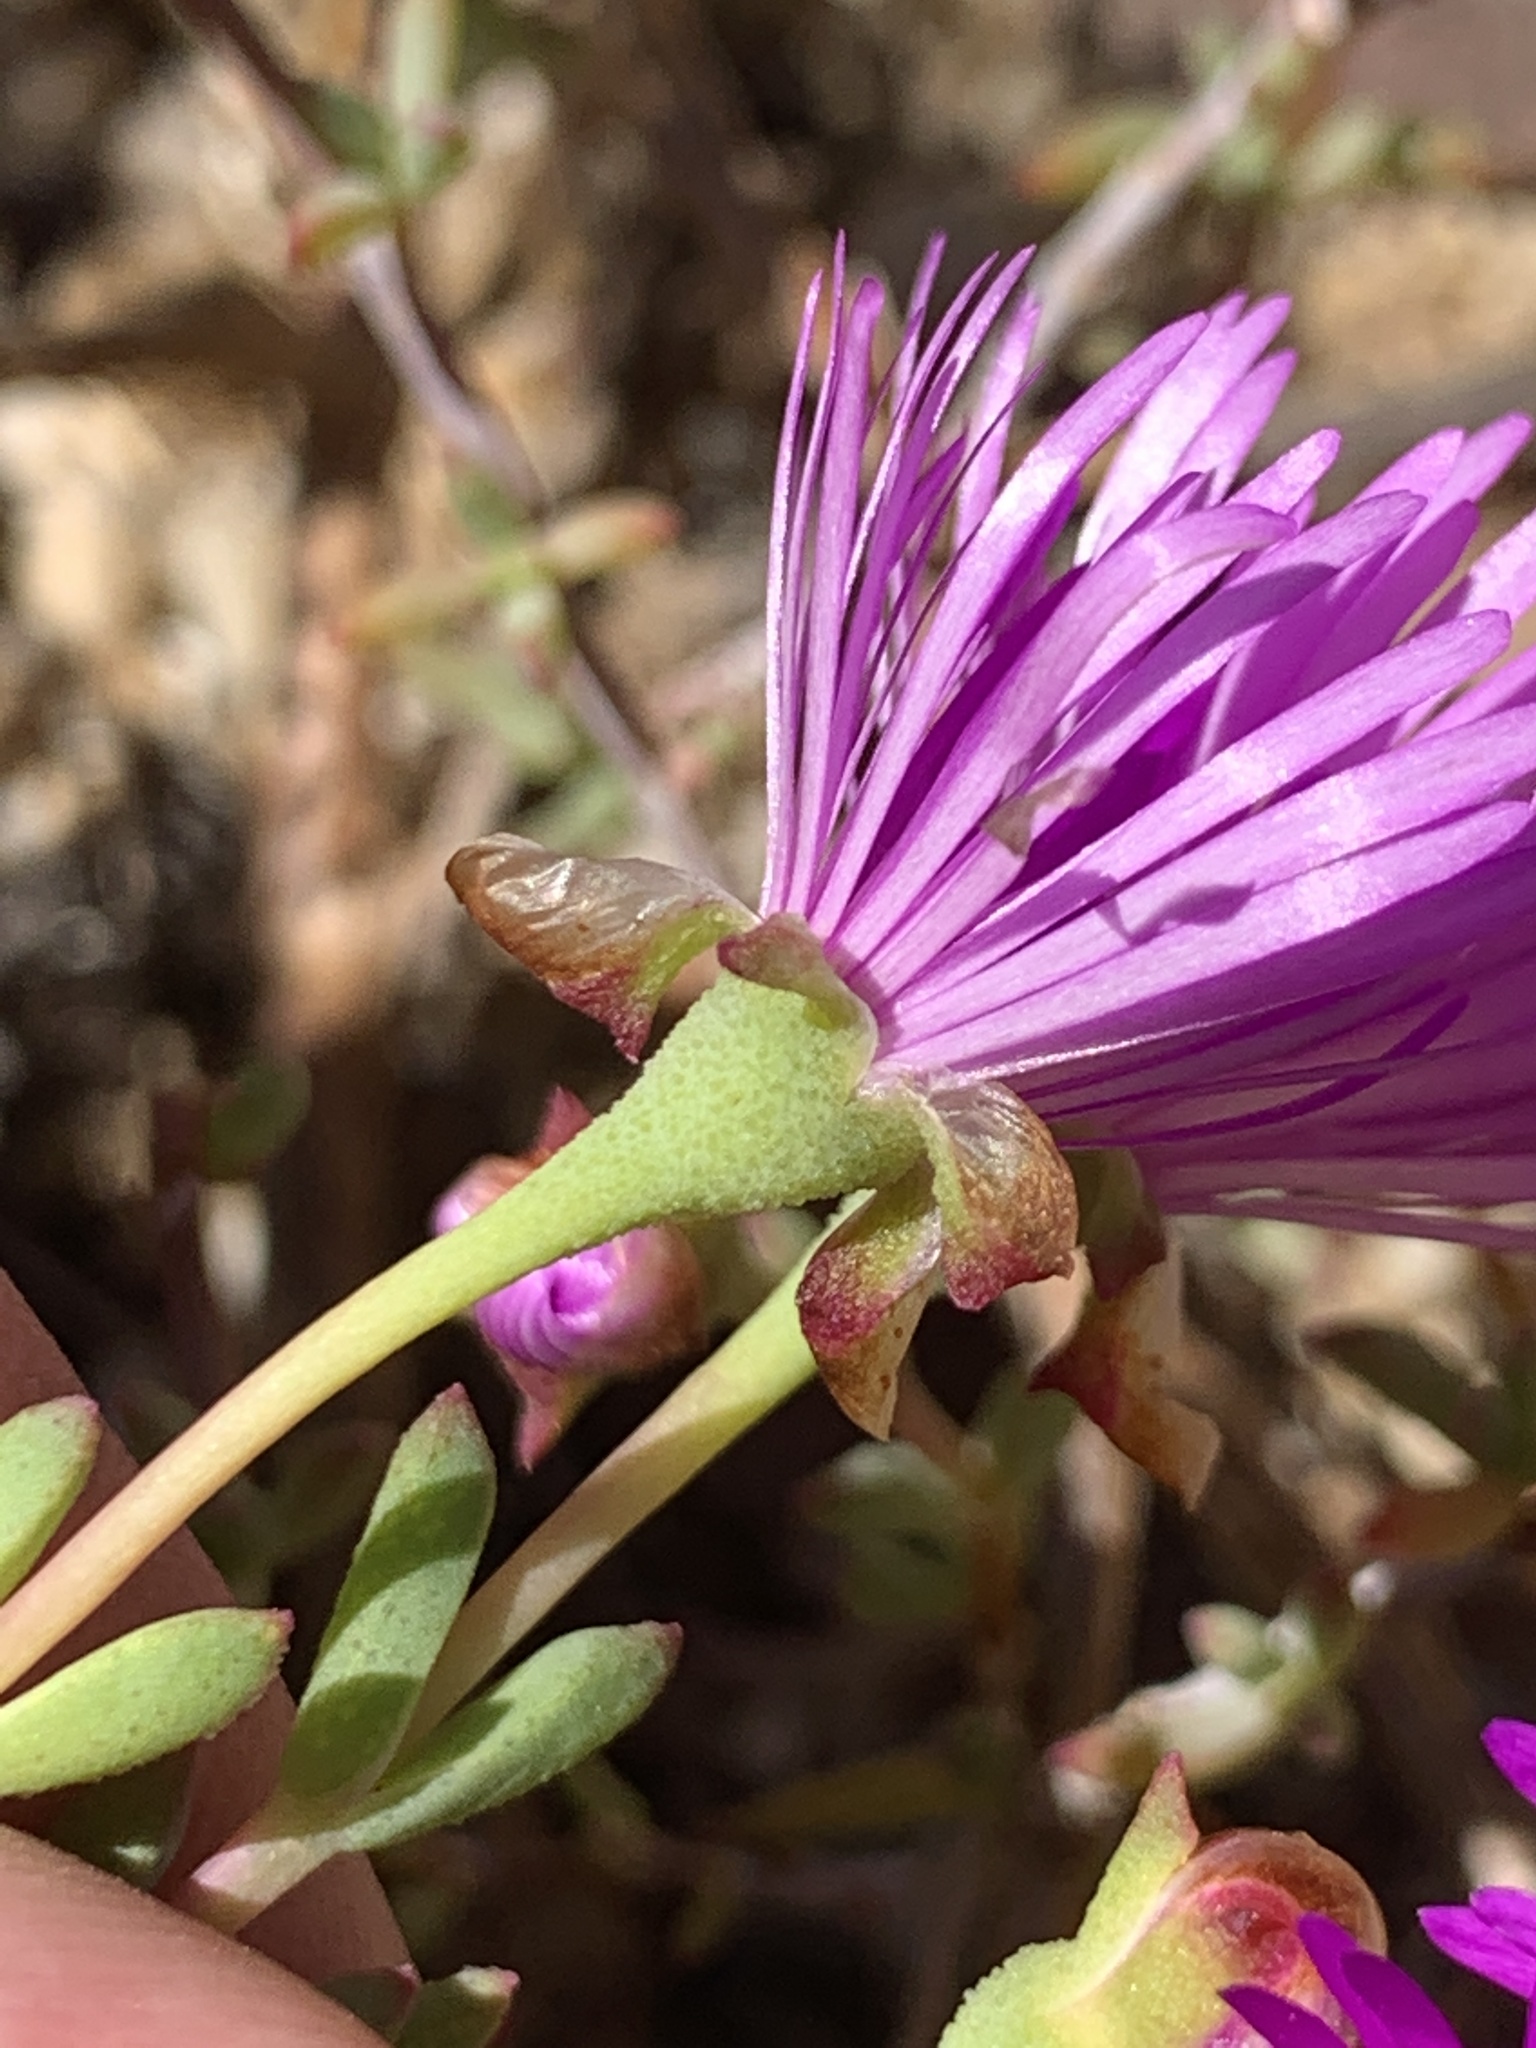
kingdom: Plantae
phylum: Tracheophyta
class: Magnoliopsida
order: Caryophyllales
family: Aizoaceae
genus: Lampranthus
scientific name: Lampranthus emarginatus
